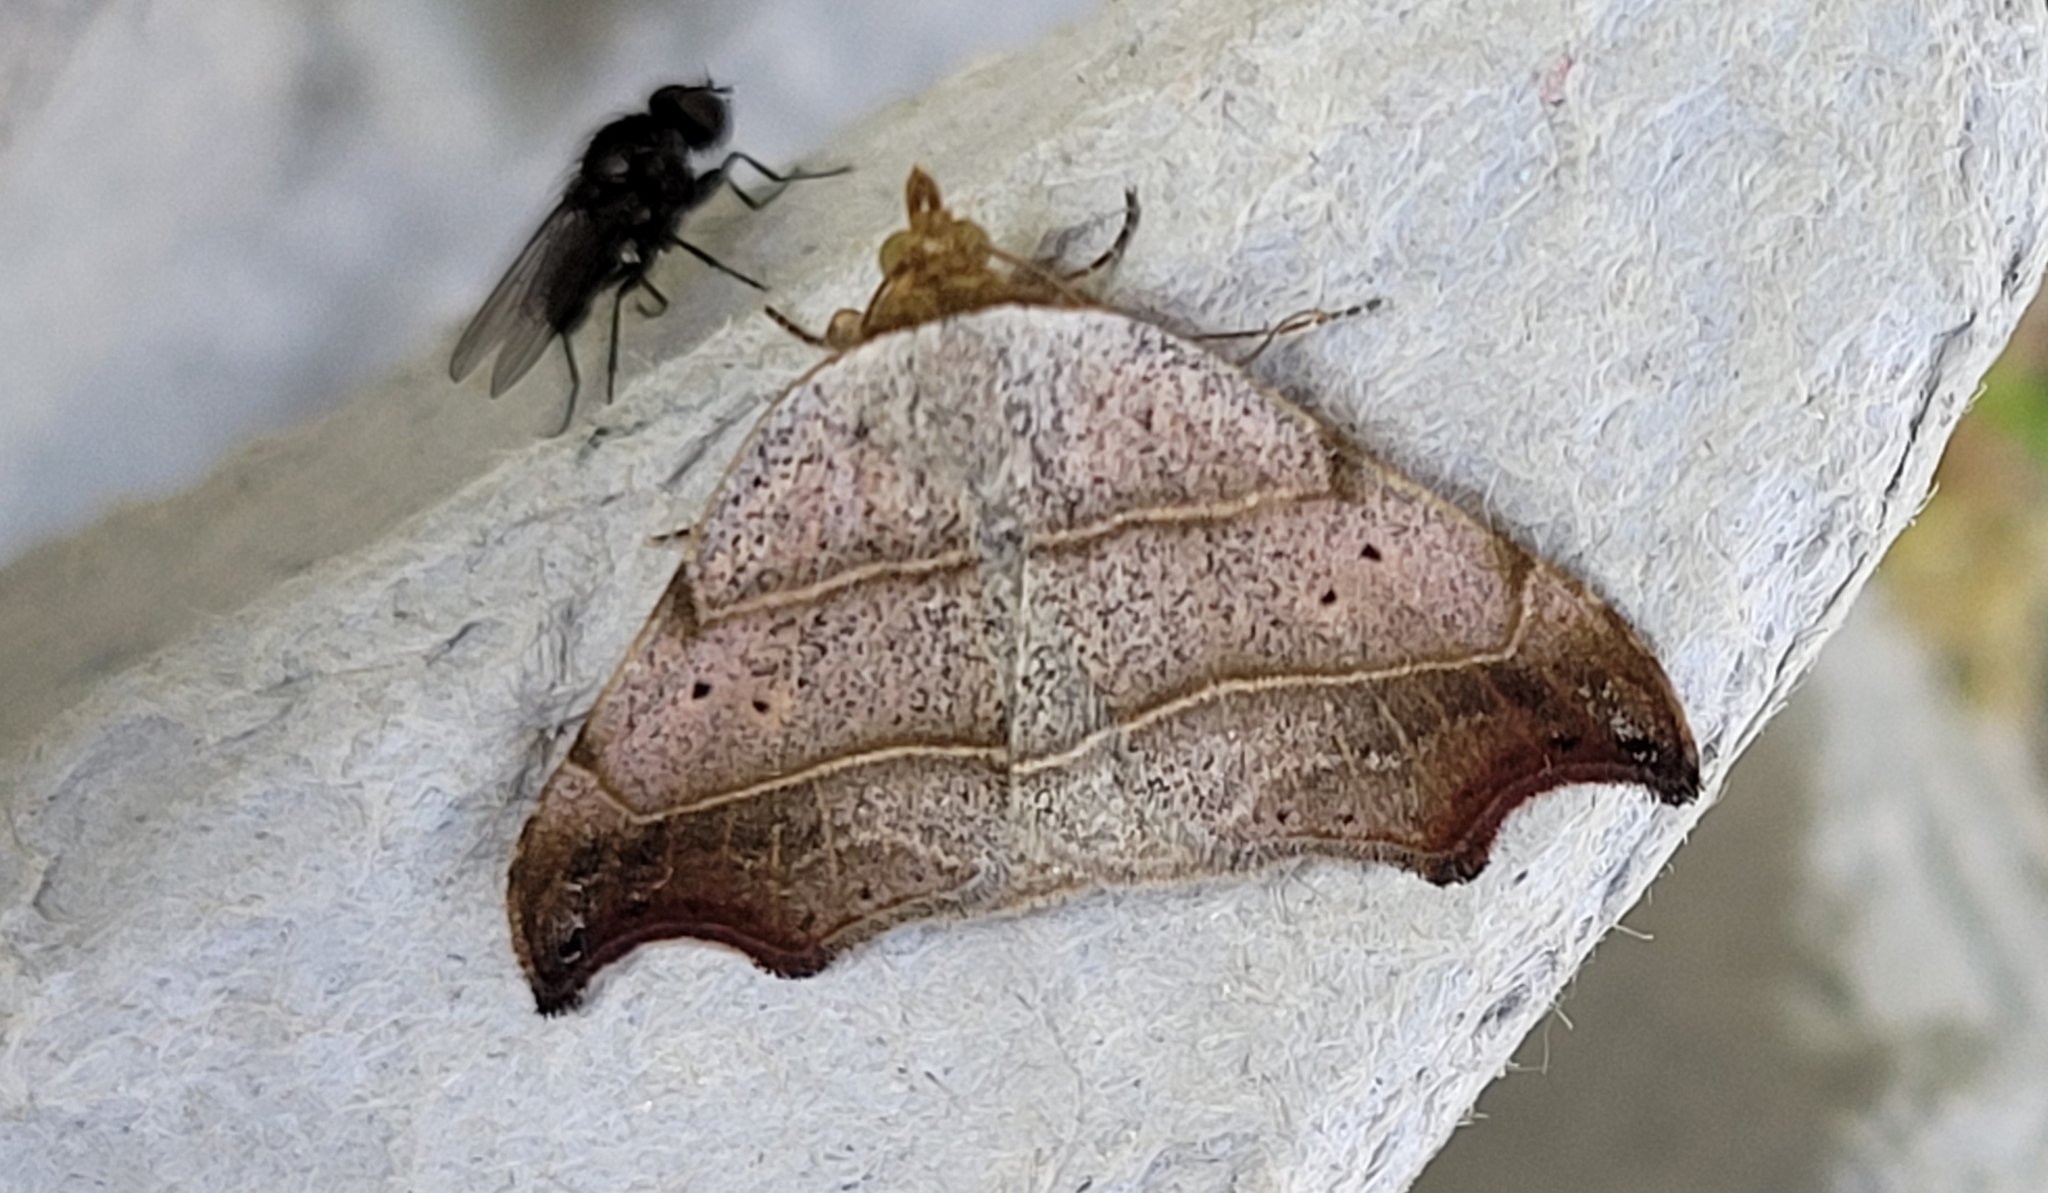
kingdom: Animalia
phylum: Arthropoda
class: Insecta
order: Lepidoptera
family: Erebidae
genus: Laspeyria
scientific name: Laspeyria flexula
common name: Beautiful hook-tip
